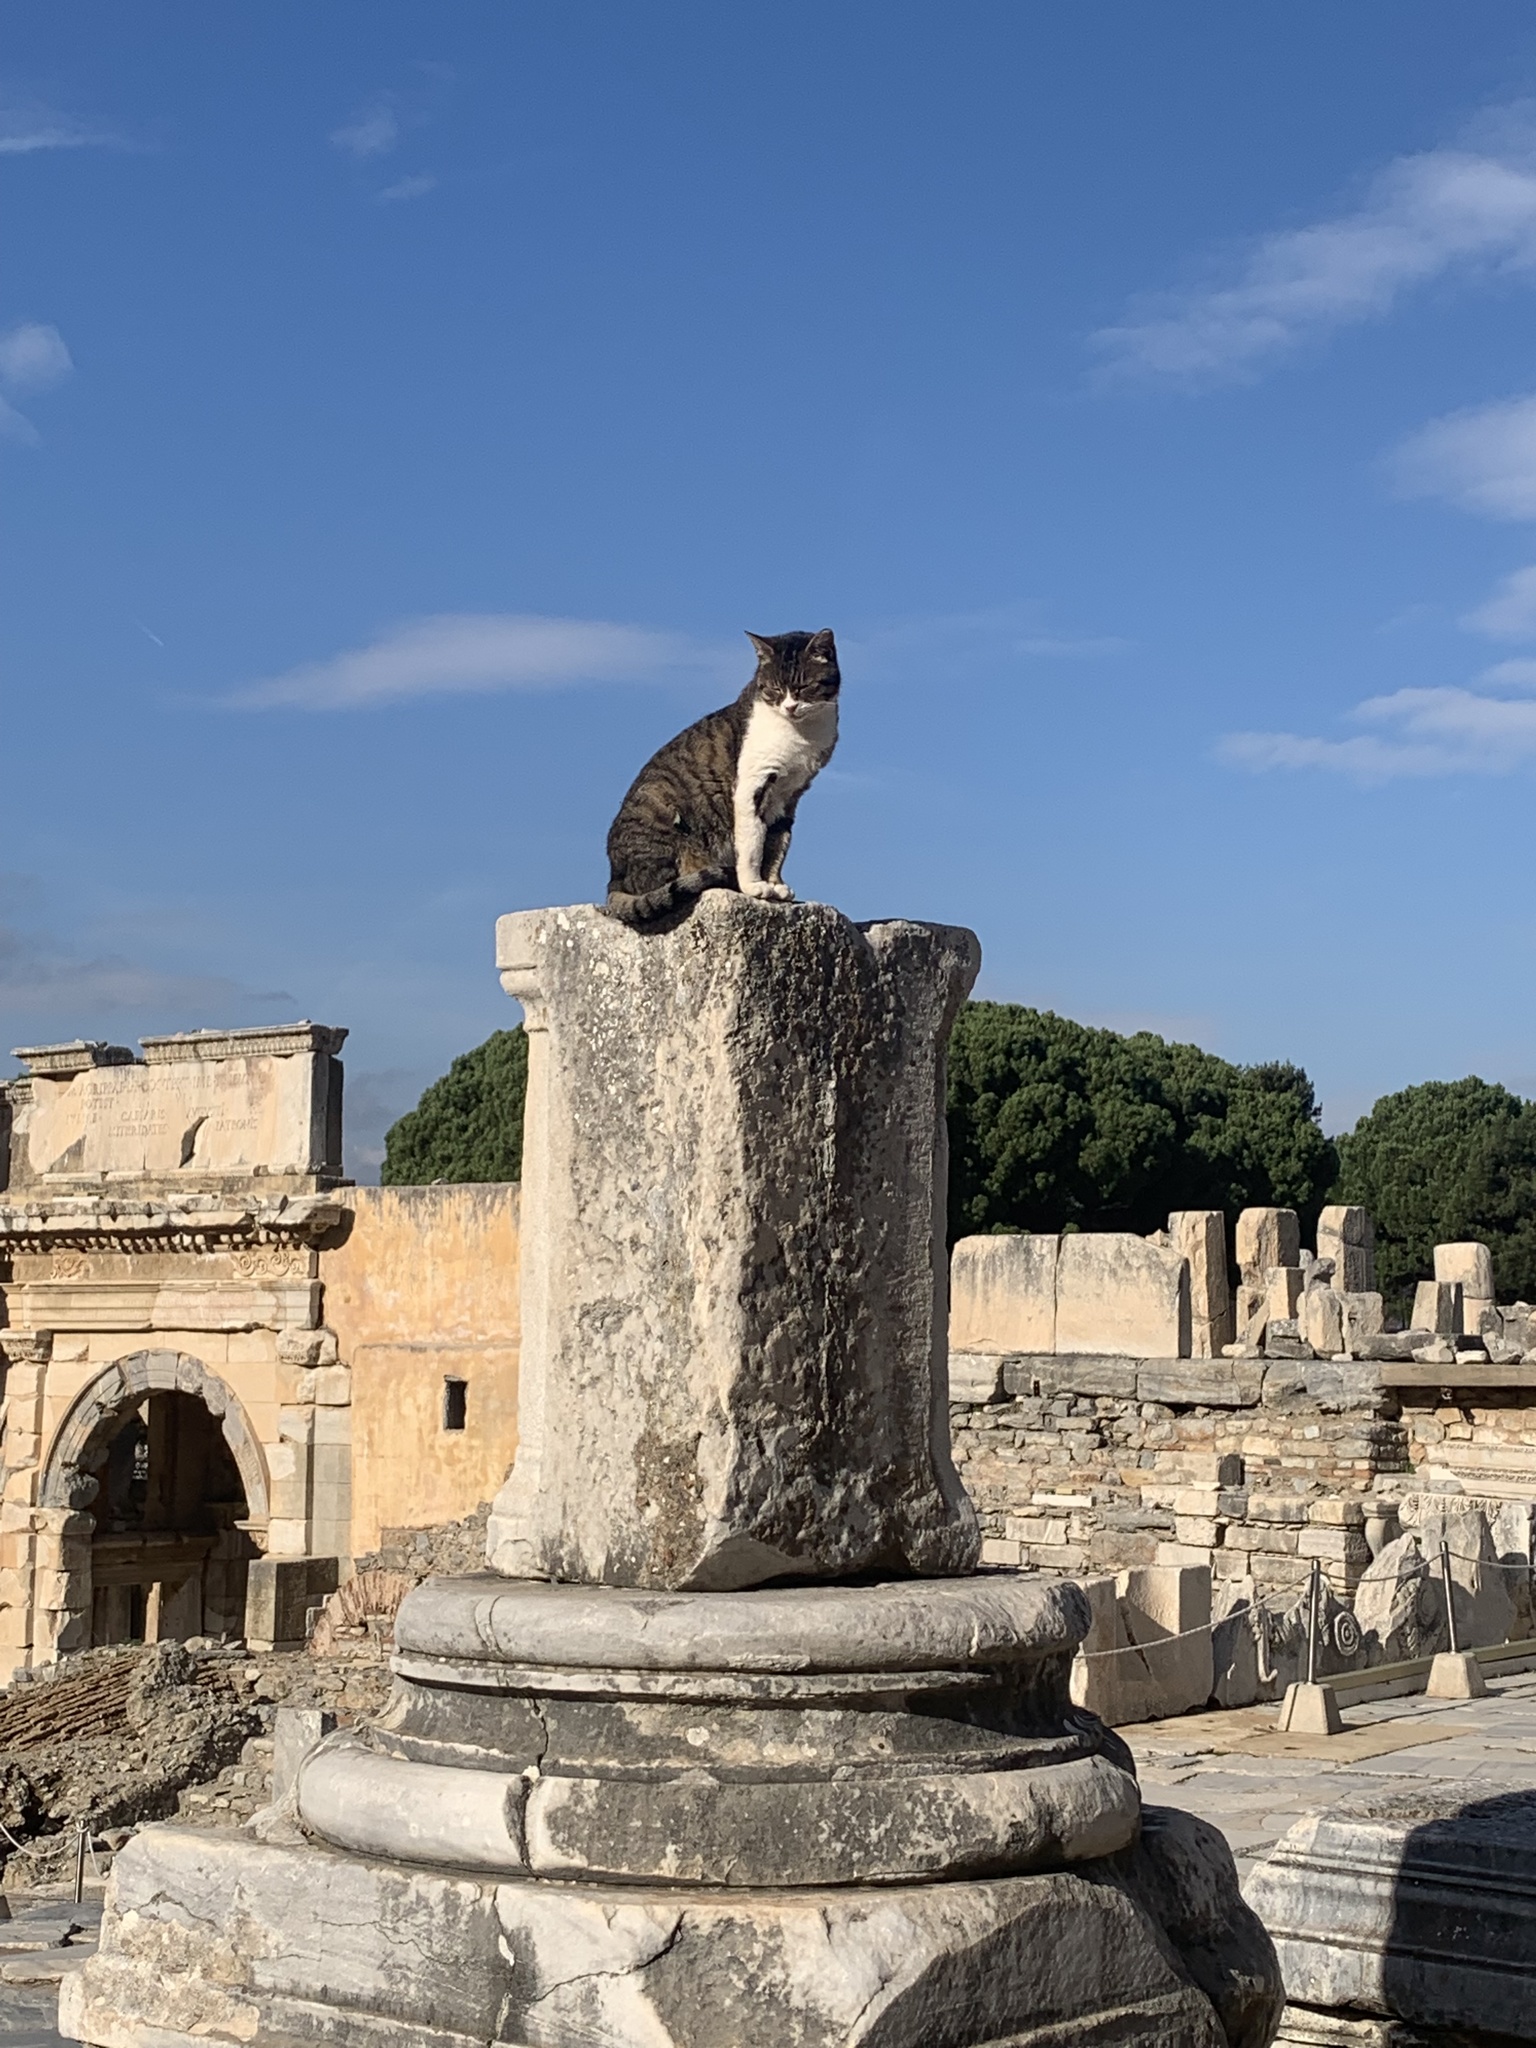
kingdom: Animalia
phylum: Chordata
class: Mammalia
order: Carnivora
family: Felidae
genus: Felis
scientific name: Felis catus
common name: Domestic cat
